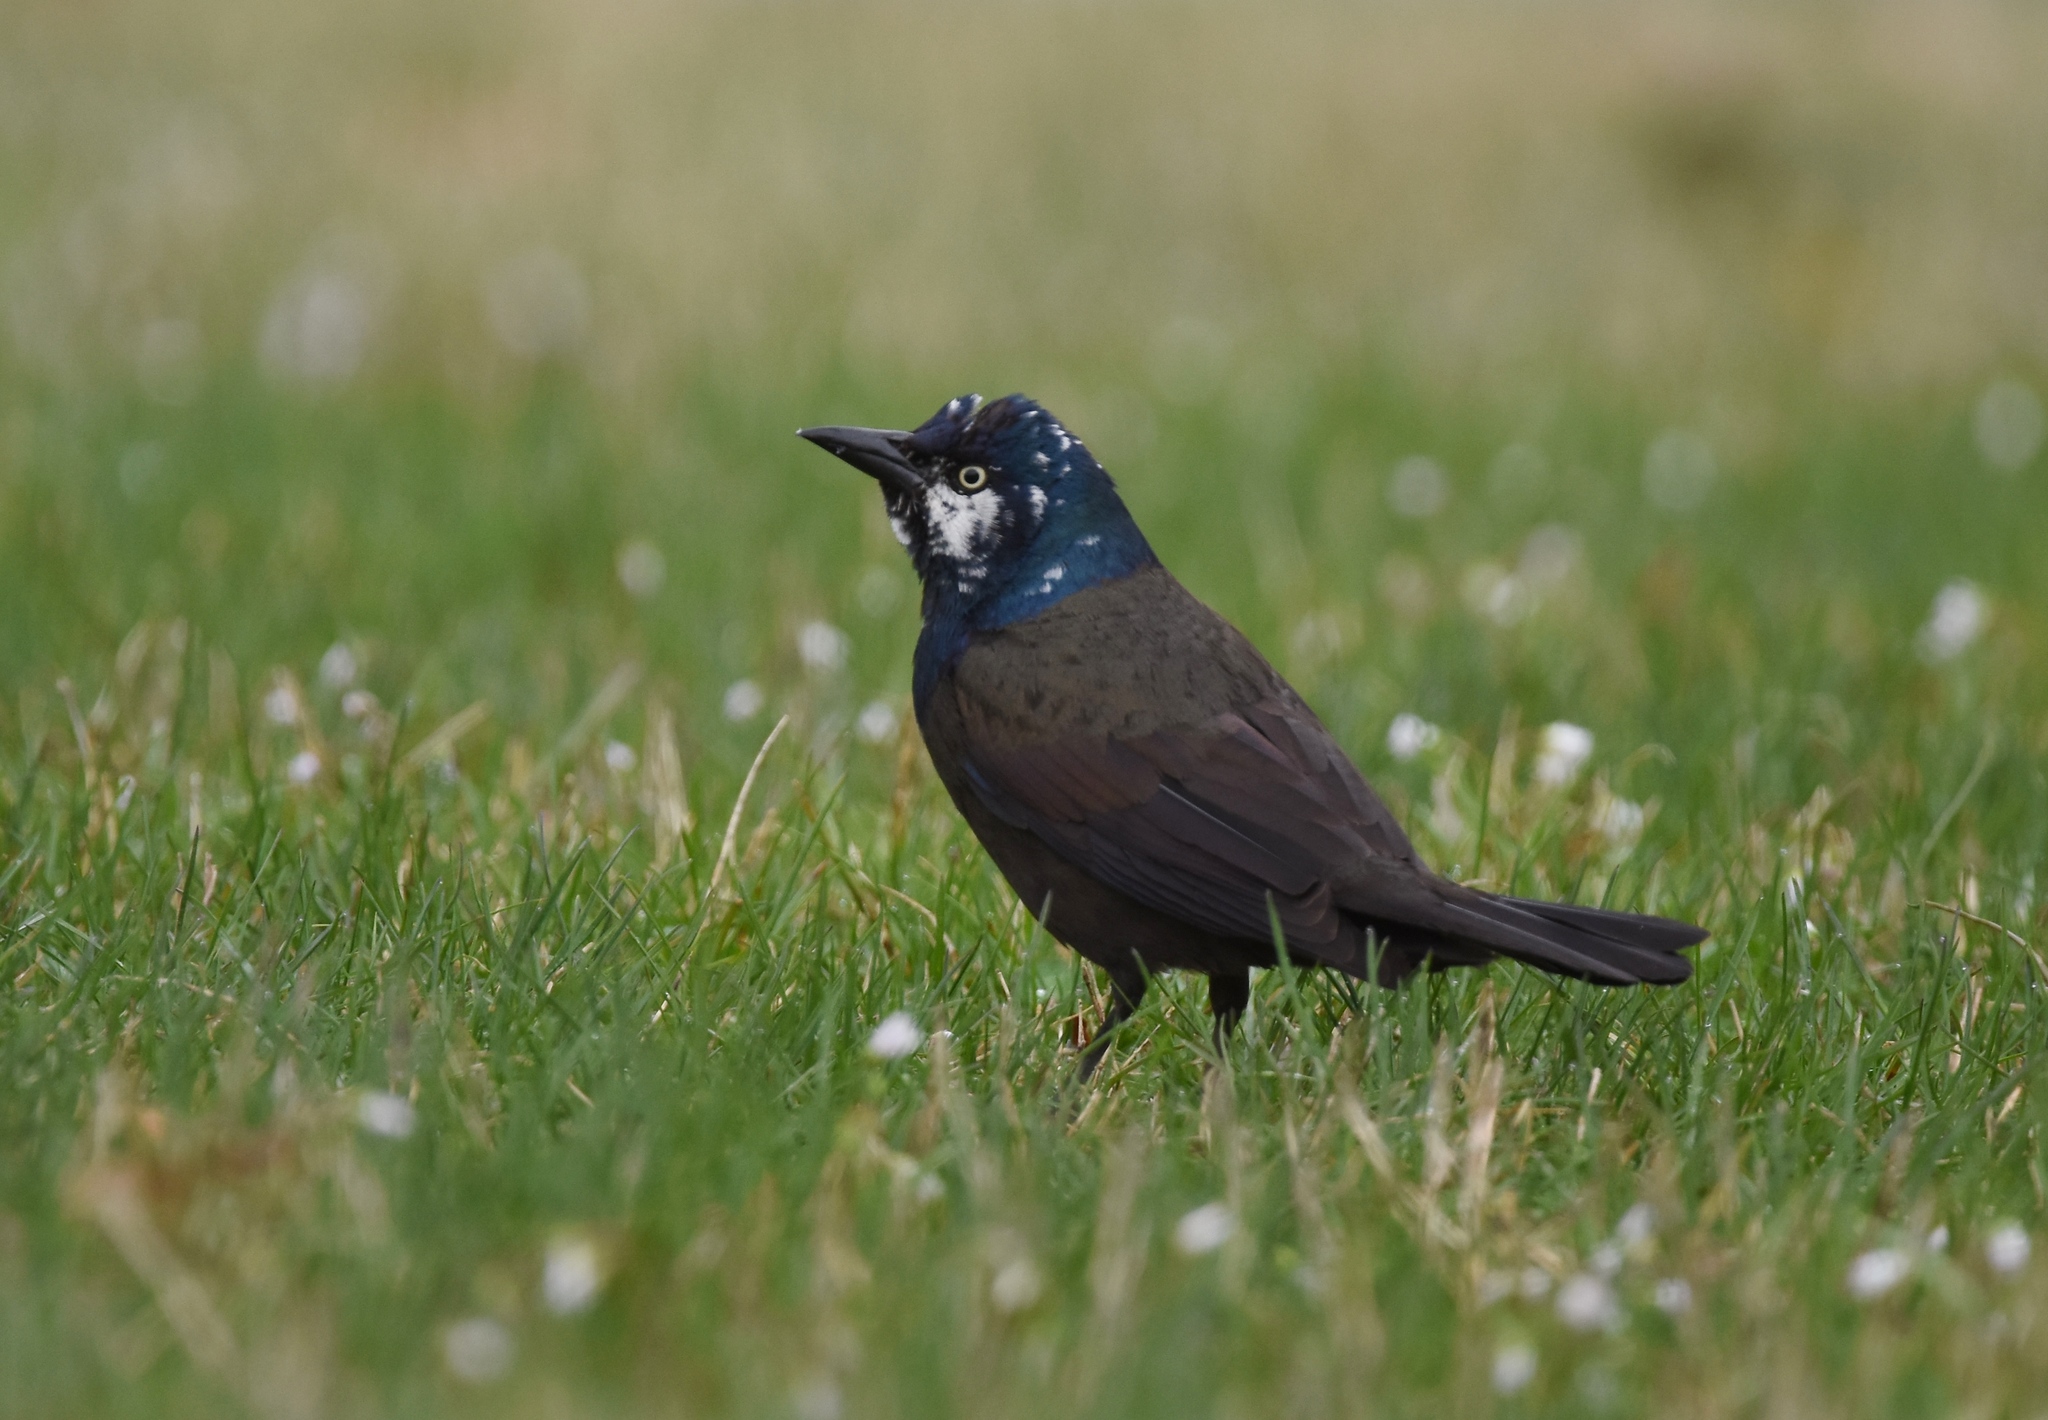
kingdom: Animalia
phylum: Chordata
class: Aves
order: Passeriformes
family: Icteridae
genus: Quiscalus
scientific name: Quiscalus quiscula
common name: Common grackle
